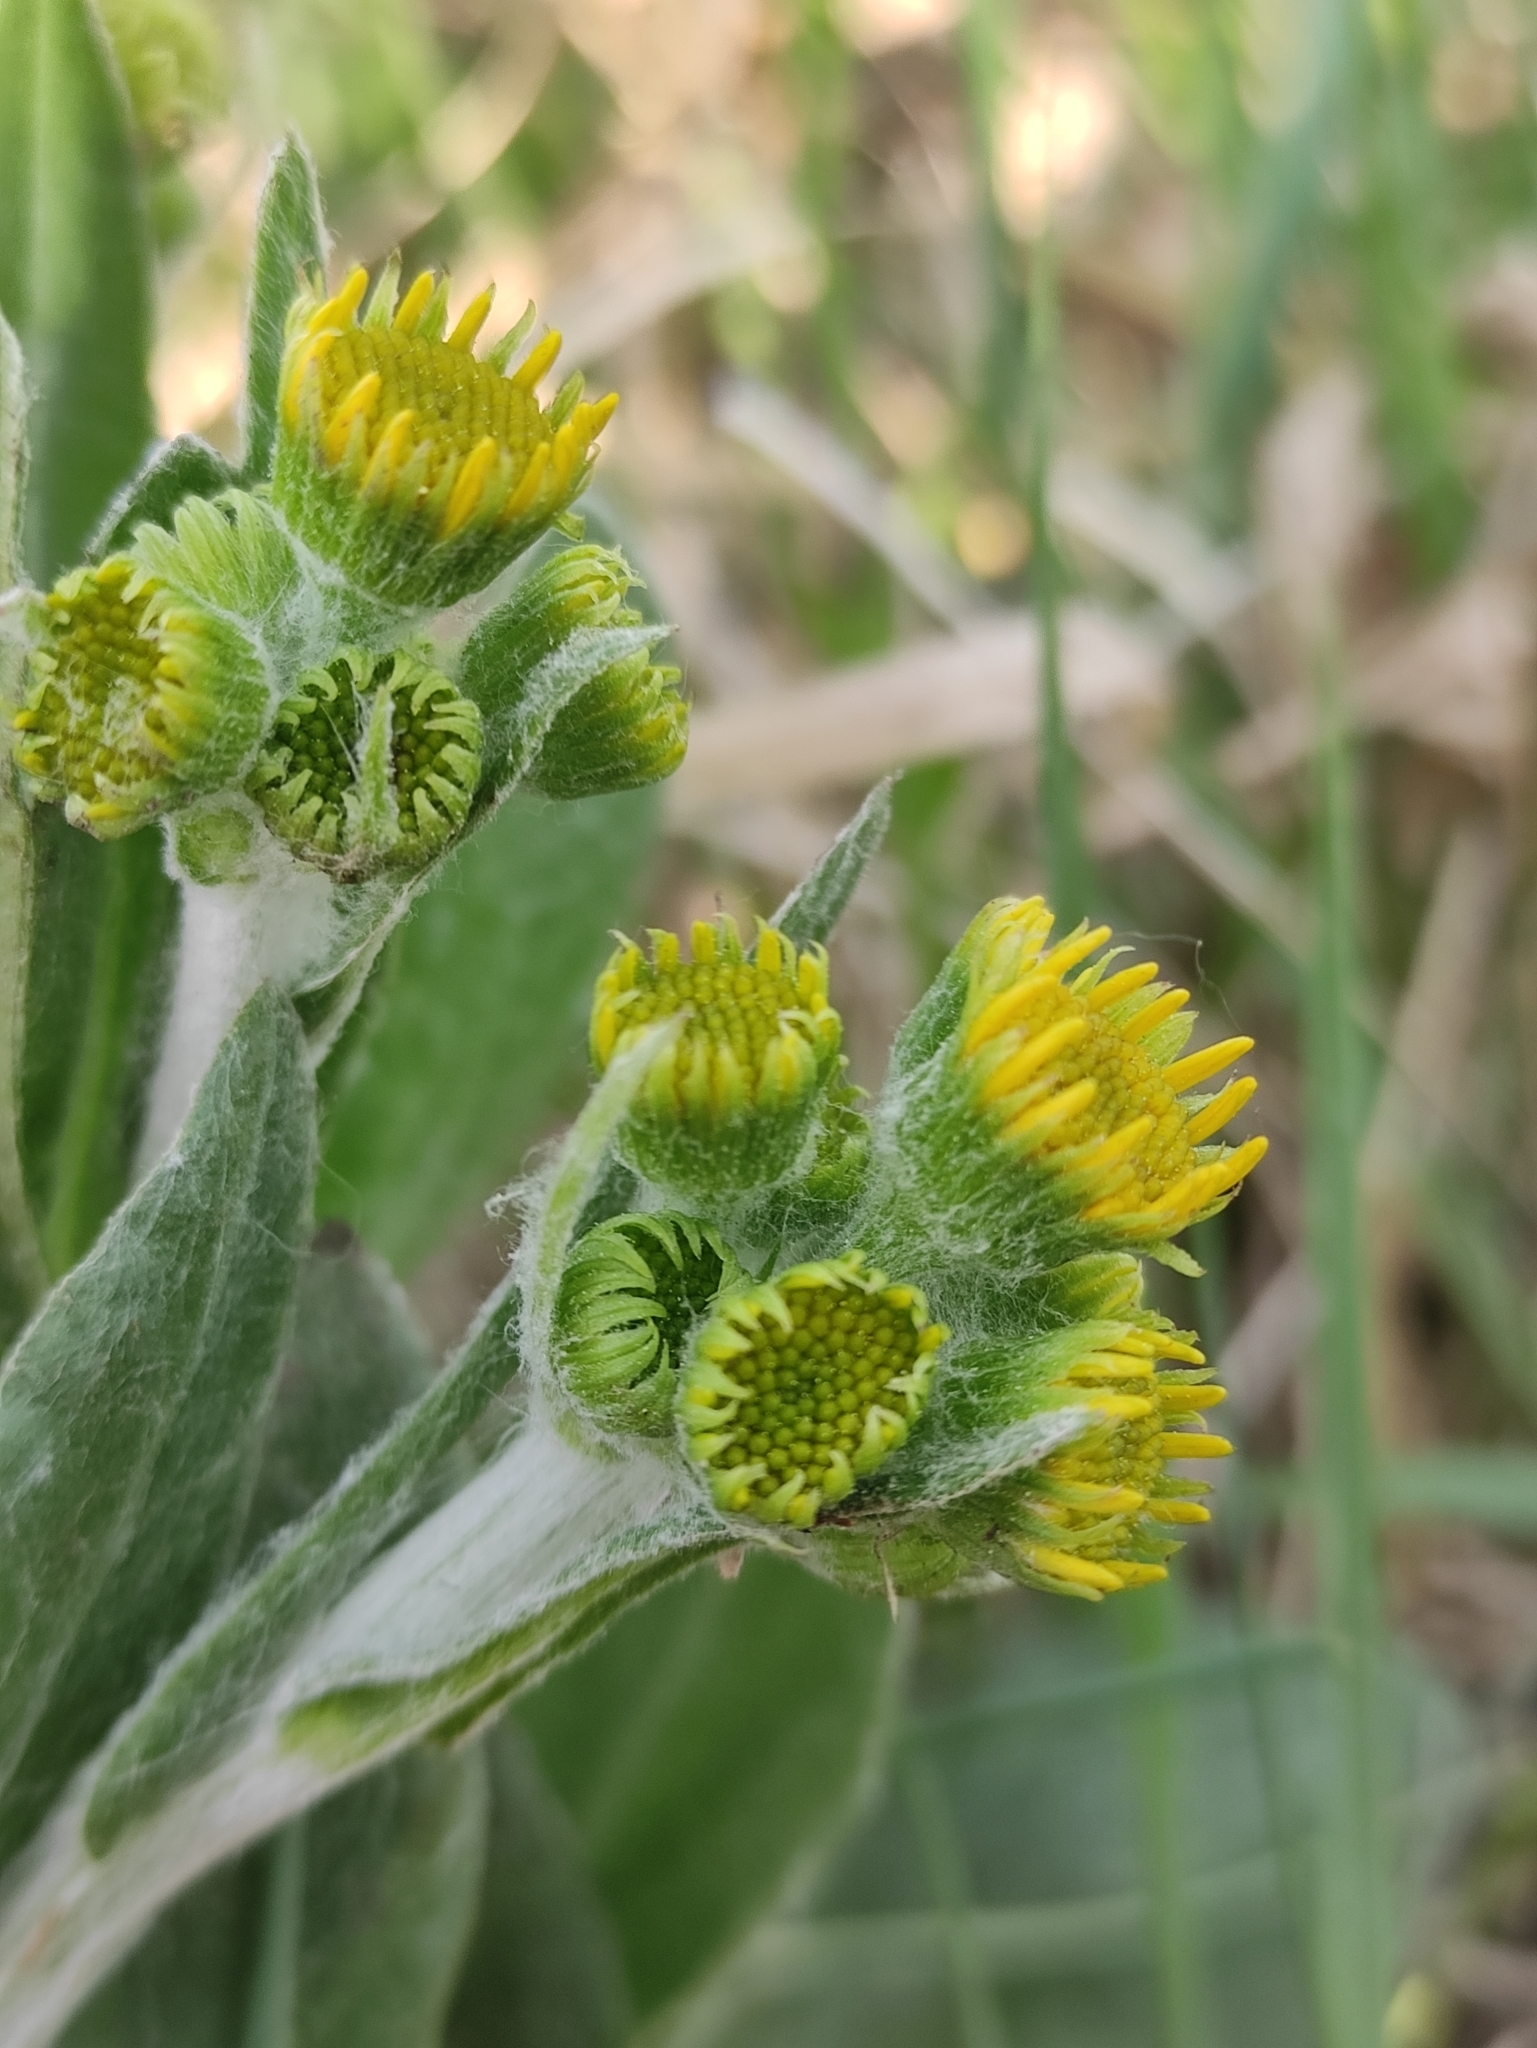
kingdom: Plantae
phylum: Tracheophyta
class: Magnoliopsida
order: Asterales
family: Asteraceae
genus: Tephroseris
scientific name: Tephroseris integrifolia
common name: Field fleawort
